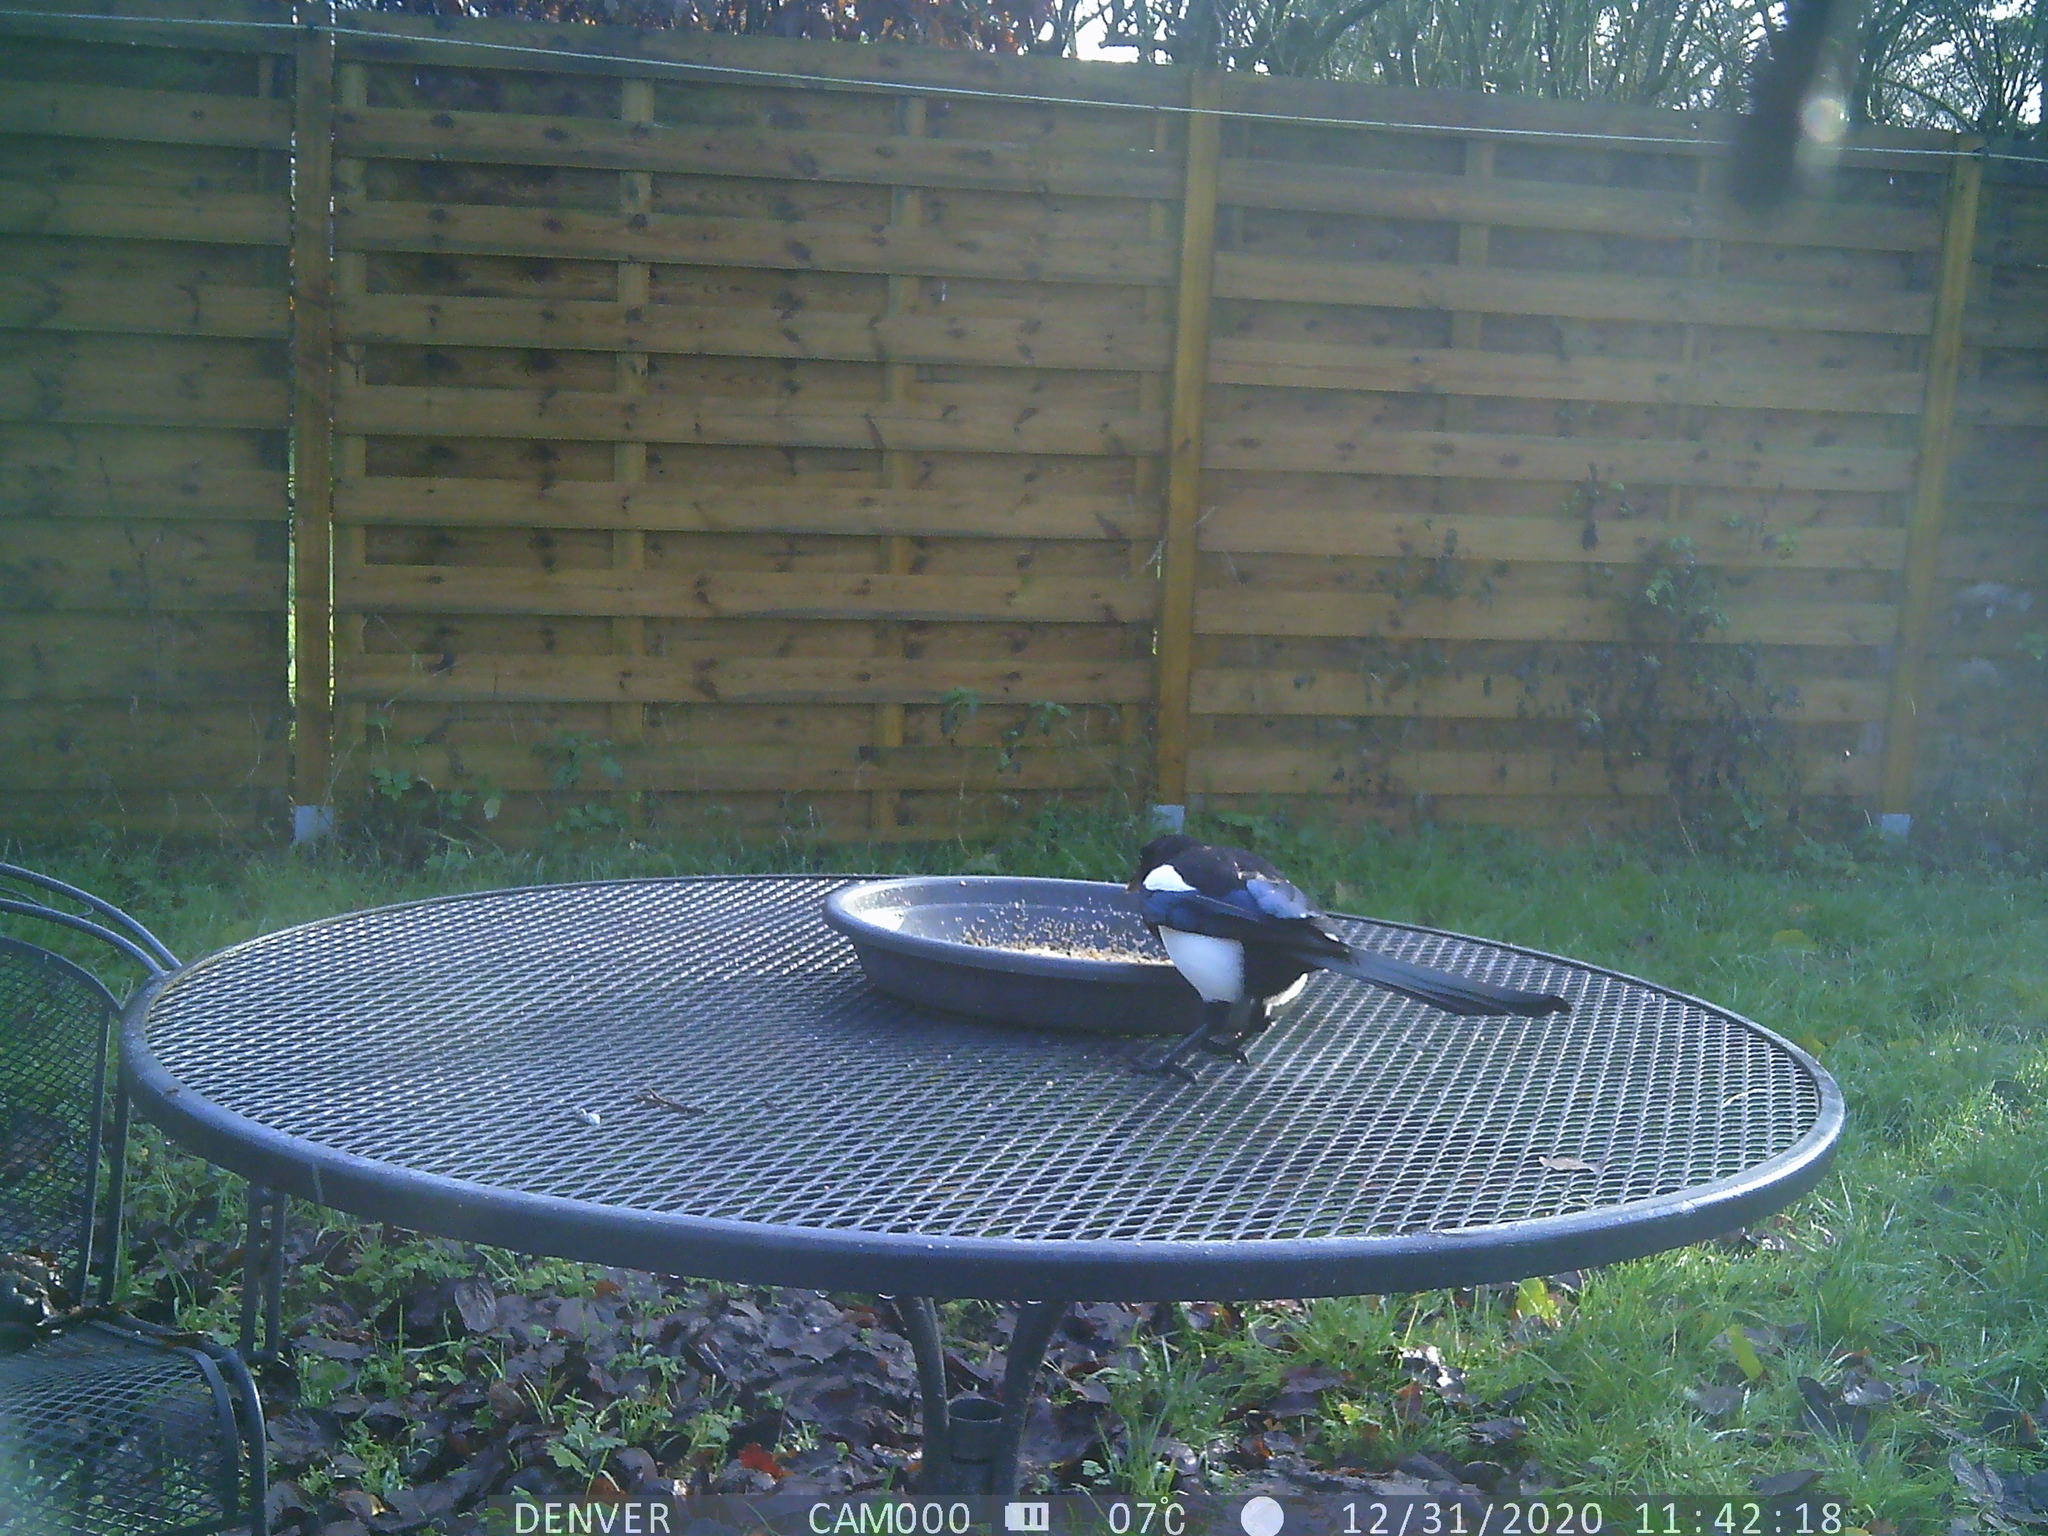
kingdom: Animalia
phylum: Chordata
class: Aves
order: Passeriformes
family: Corvidae
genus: Pica
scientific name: Pica pica
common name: Eurasian magpie
